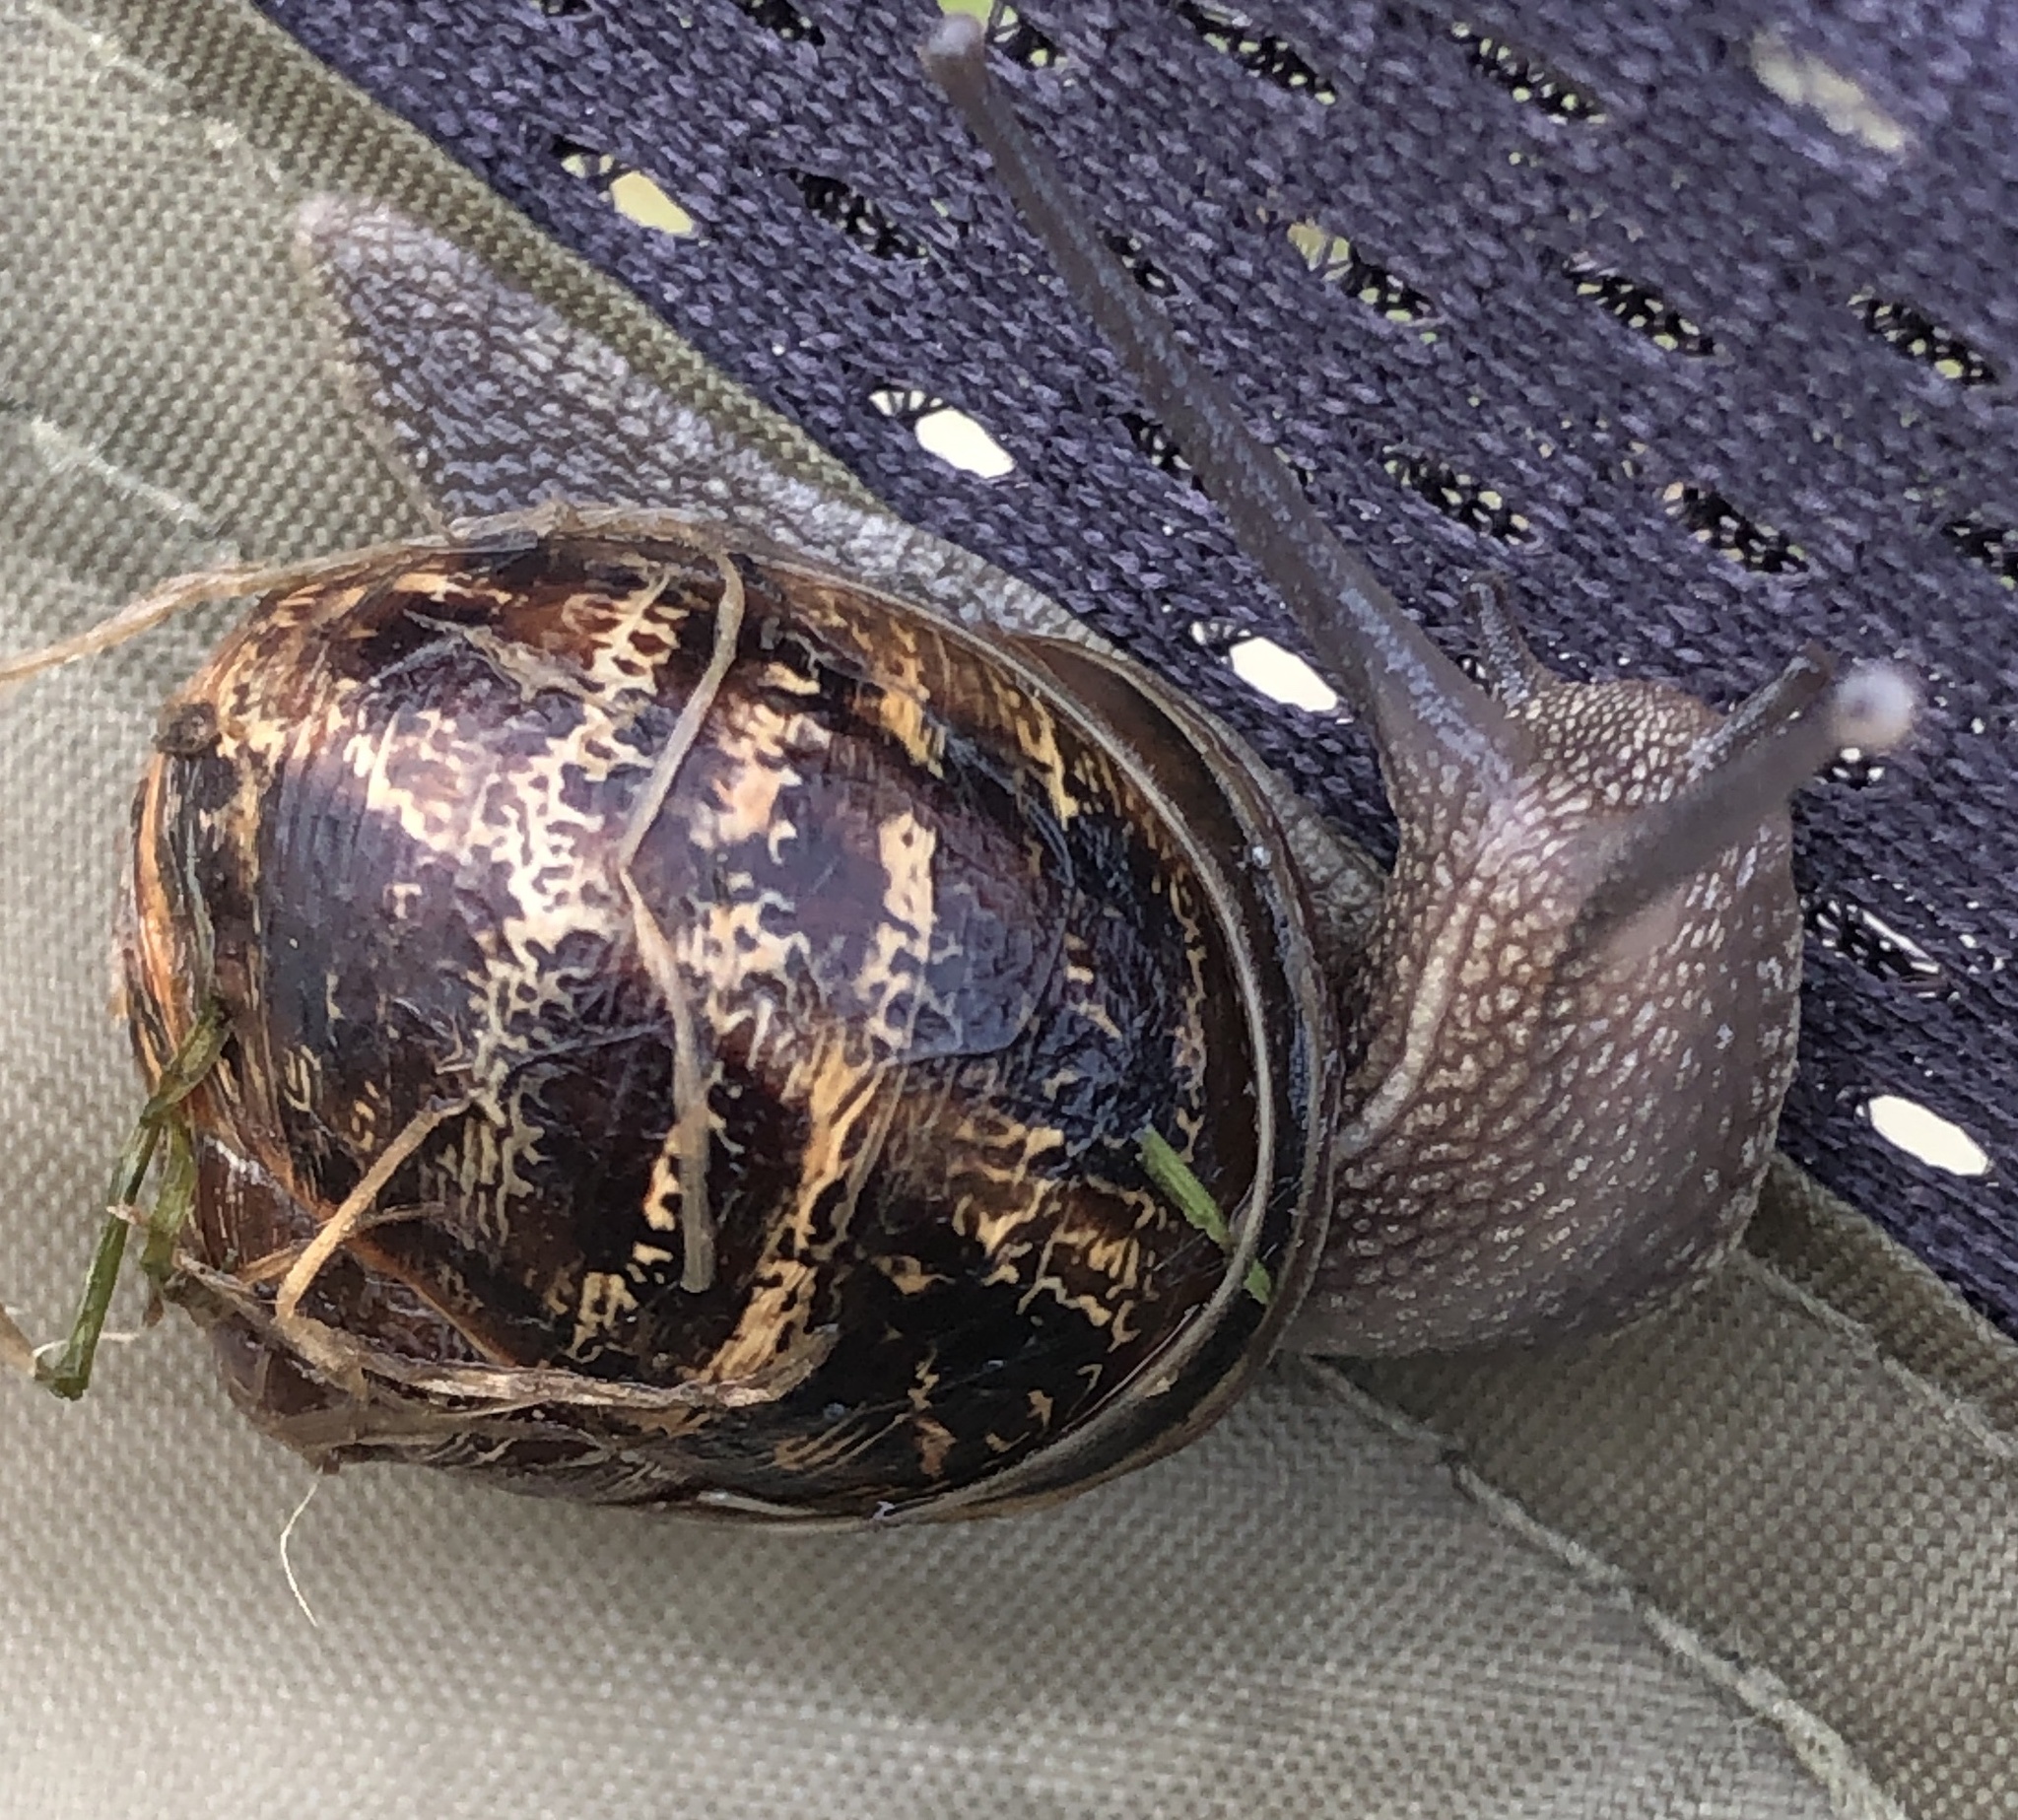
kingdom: Animalia
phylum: Mollusca
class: Gastropoda
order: Stylommatophora
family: Helicidae
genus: Cornu
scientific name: Cornu aspersum
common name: Brown garden snail
